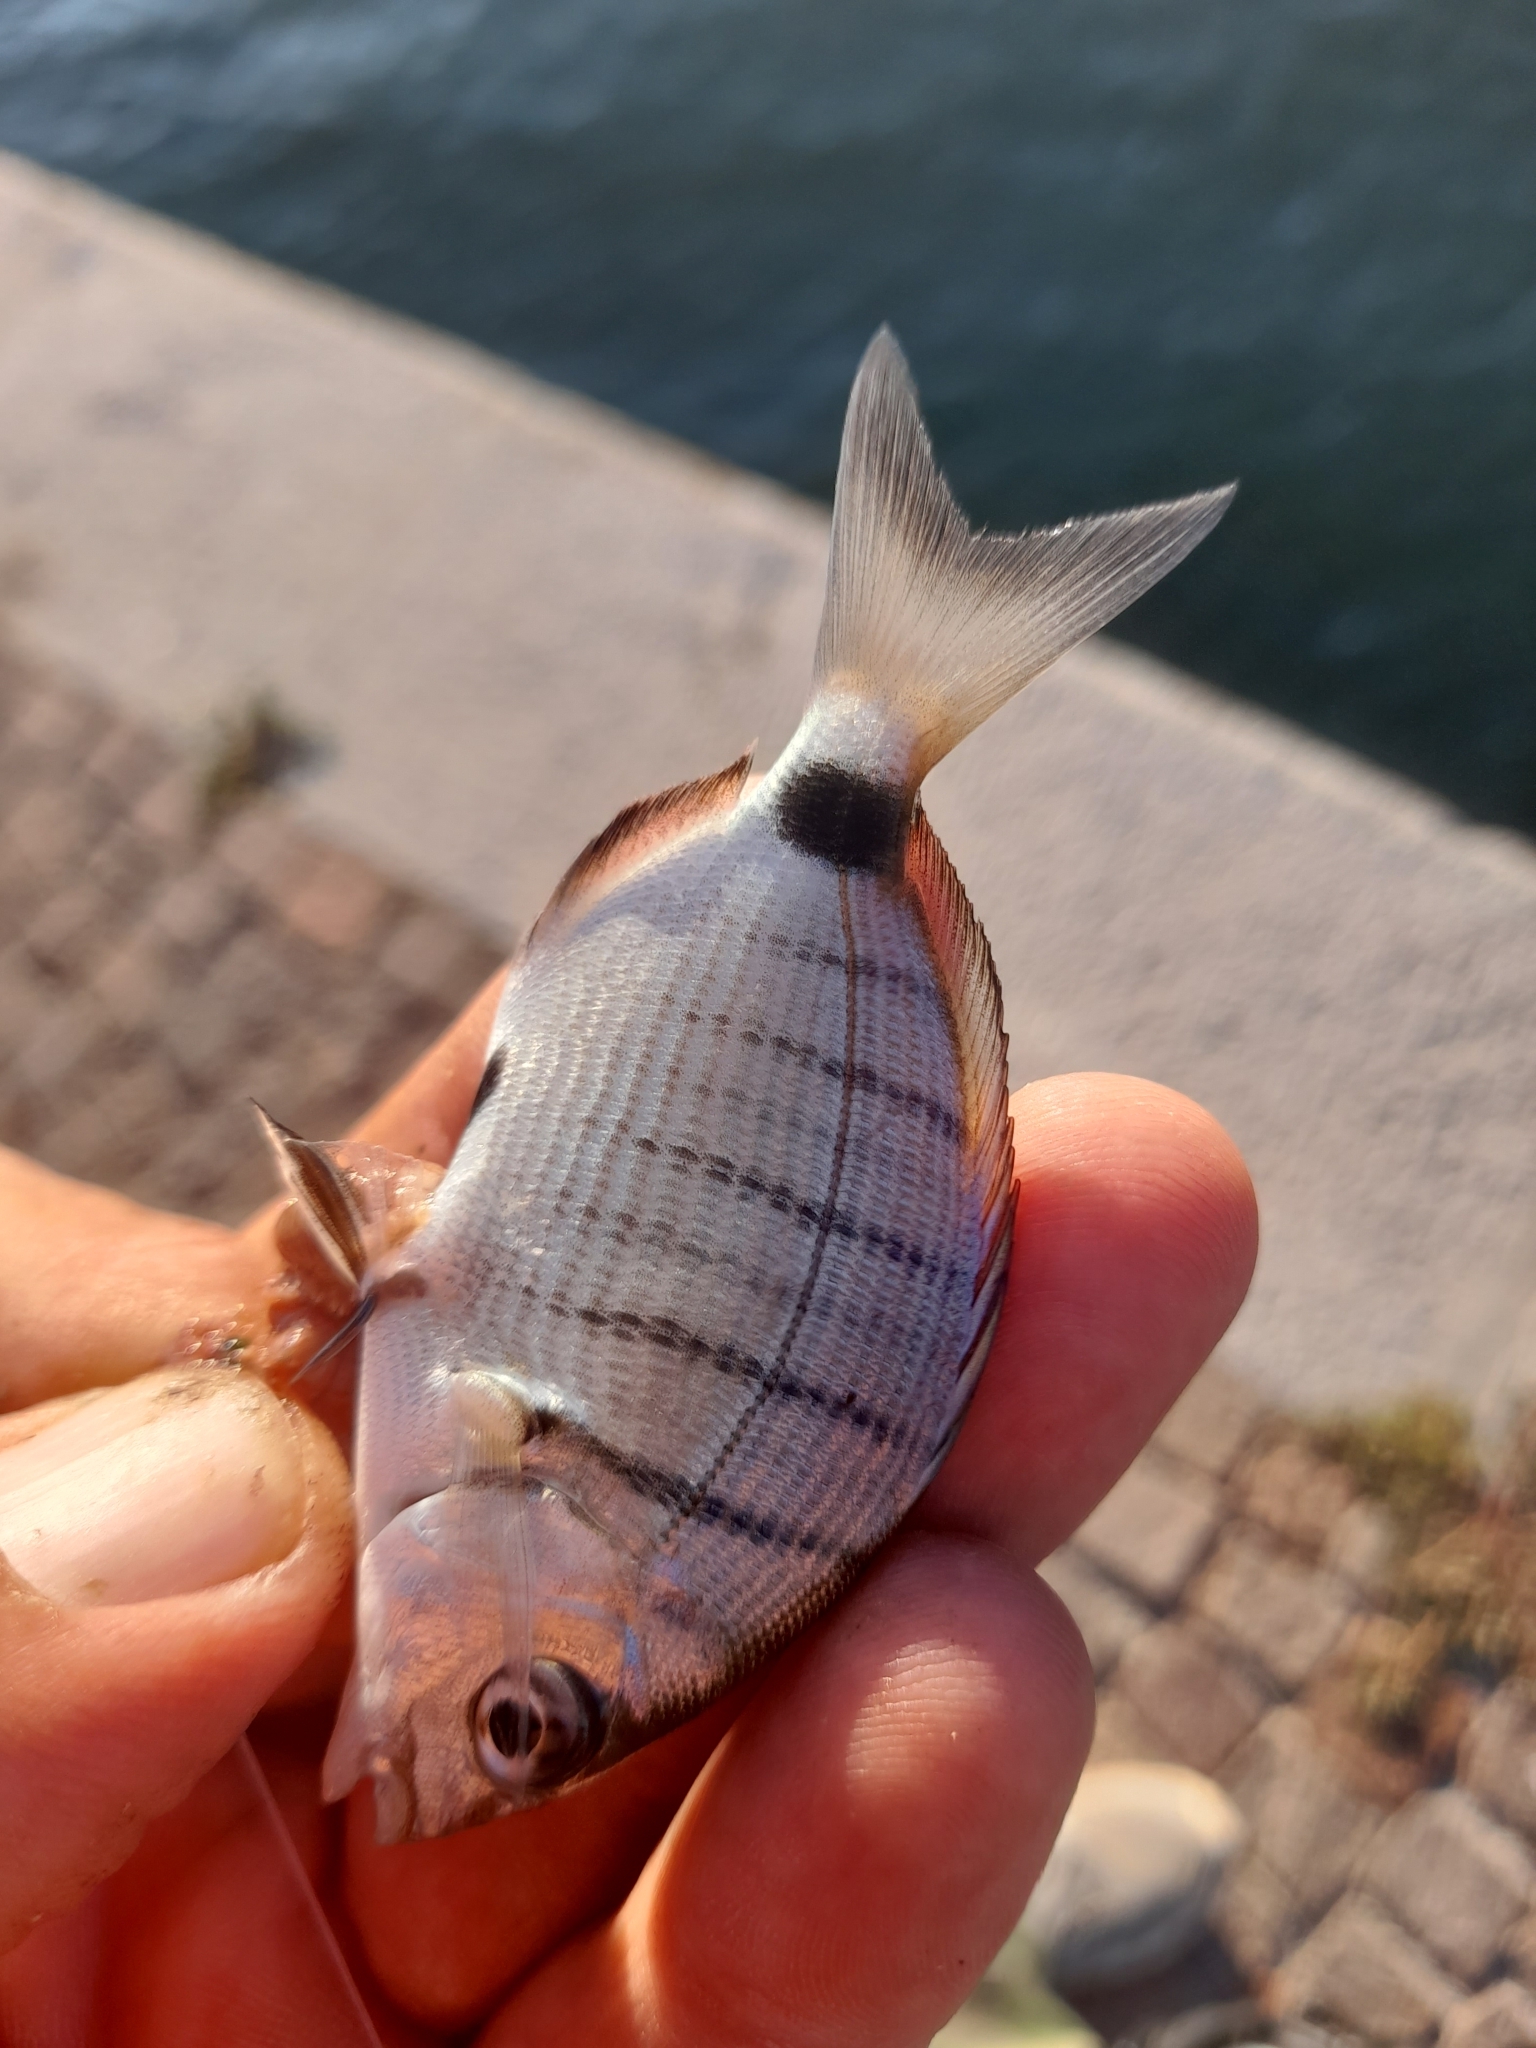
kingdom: Animalia
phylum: Chordata
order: Perciformes
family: Sparidae
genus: Diplodus
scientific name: Diplodus sargus
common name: White seabream
